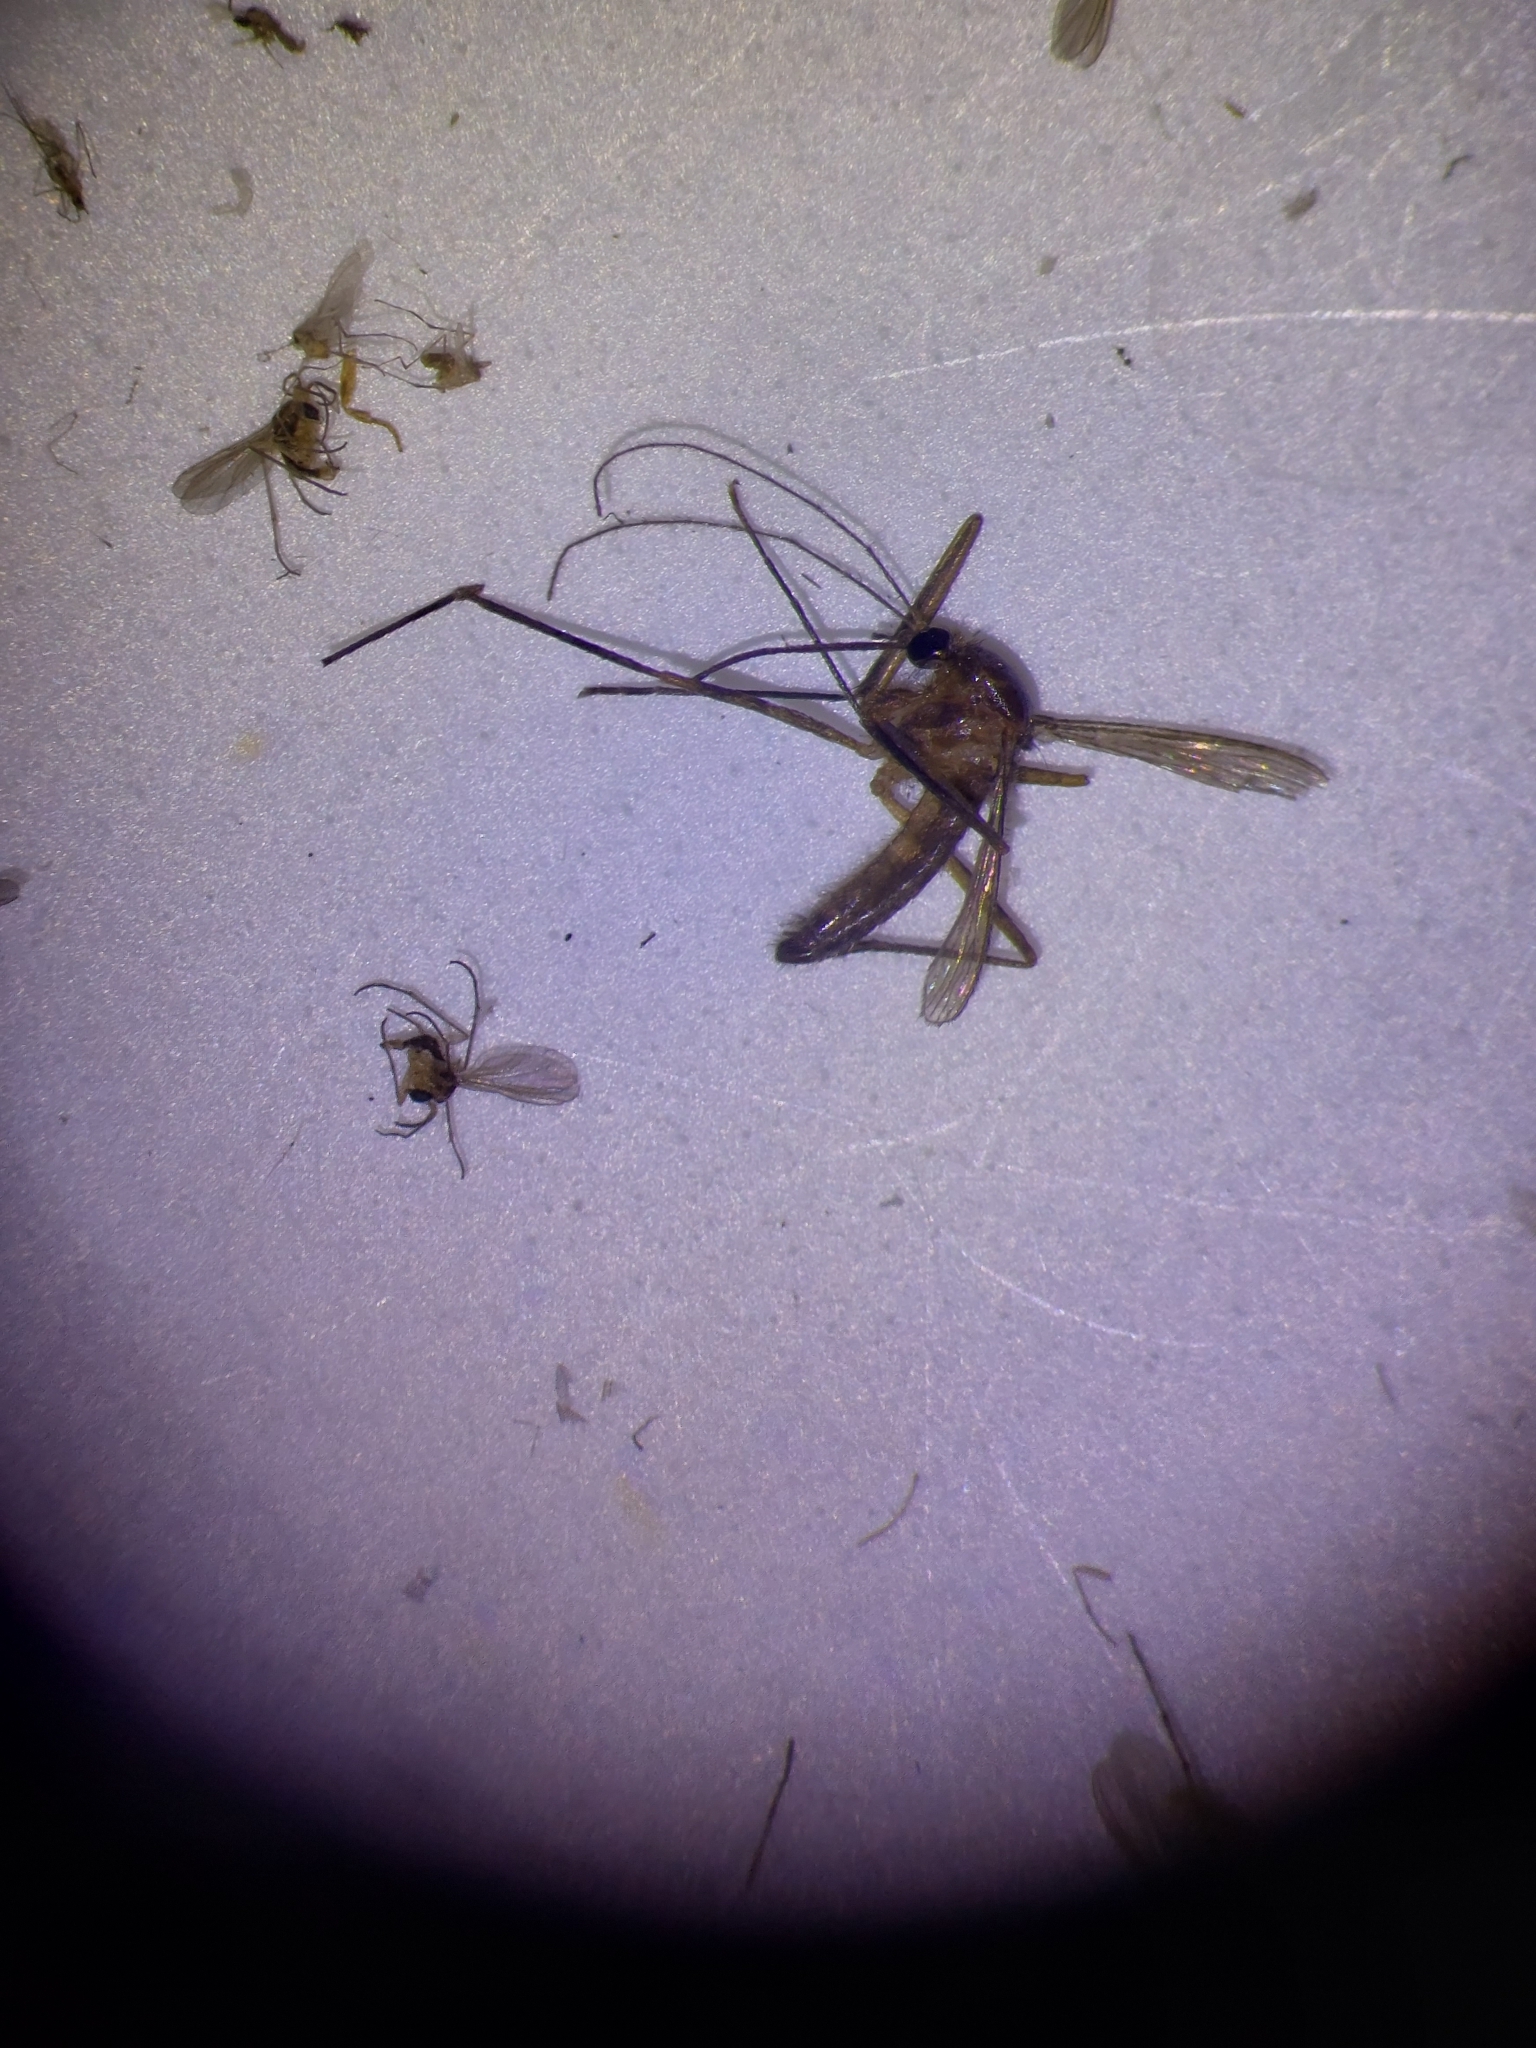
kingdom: Animalia
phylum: Arthropoda
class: Insecta
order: Diptera
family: Culicidae
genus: Deinocerites
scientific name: Deinocerites cancer
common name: Crabhole mosquito
